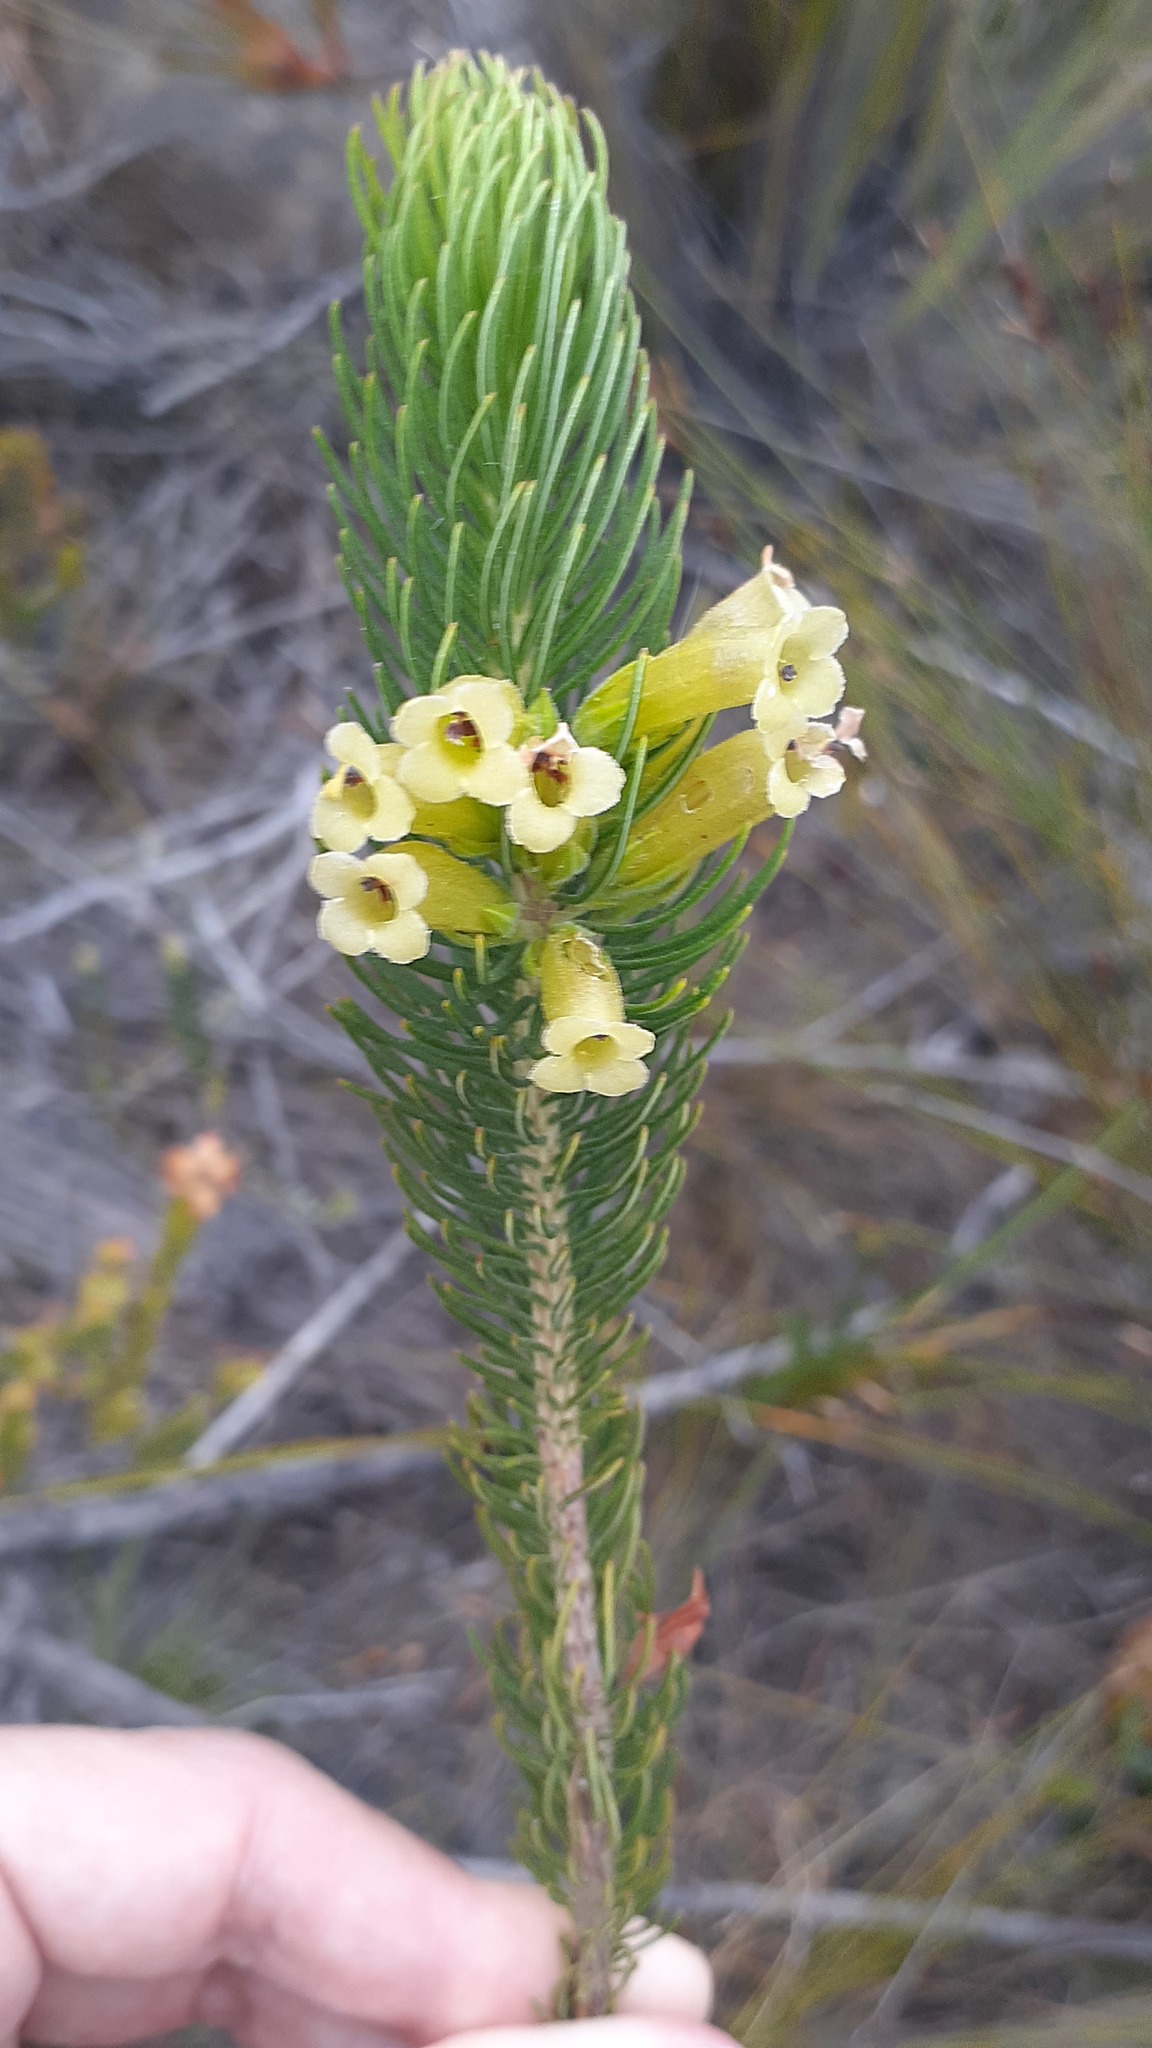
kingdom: Plantae
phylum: Tracheophyta
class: Magnoliopsida
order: Ericales
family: Ericaceae
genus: Erica
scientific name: Erica viscaria
